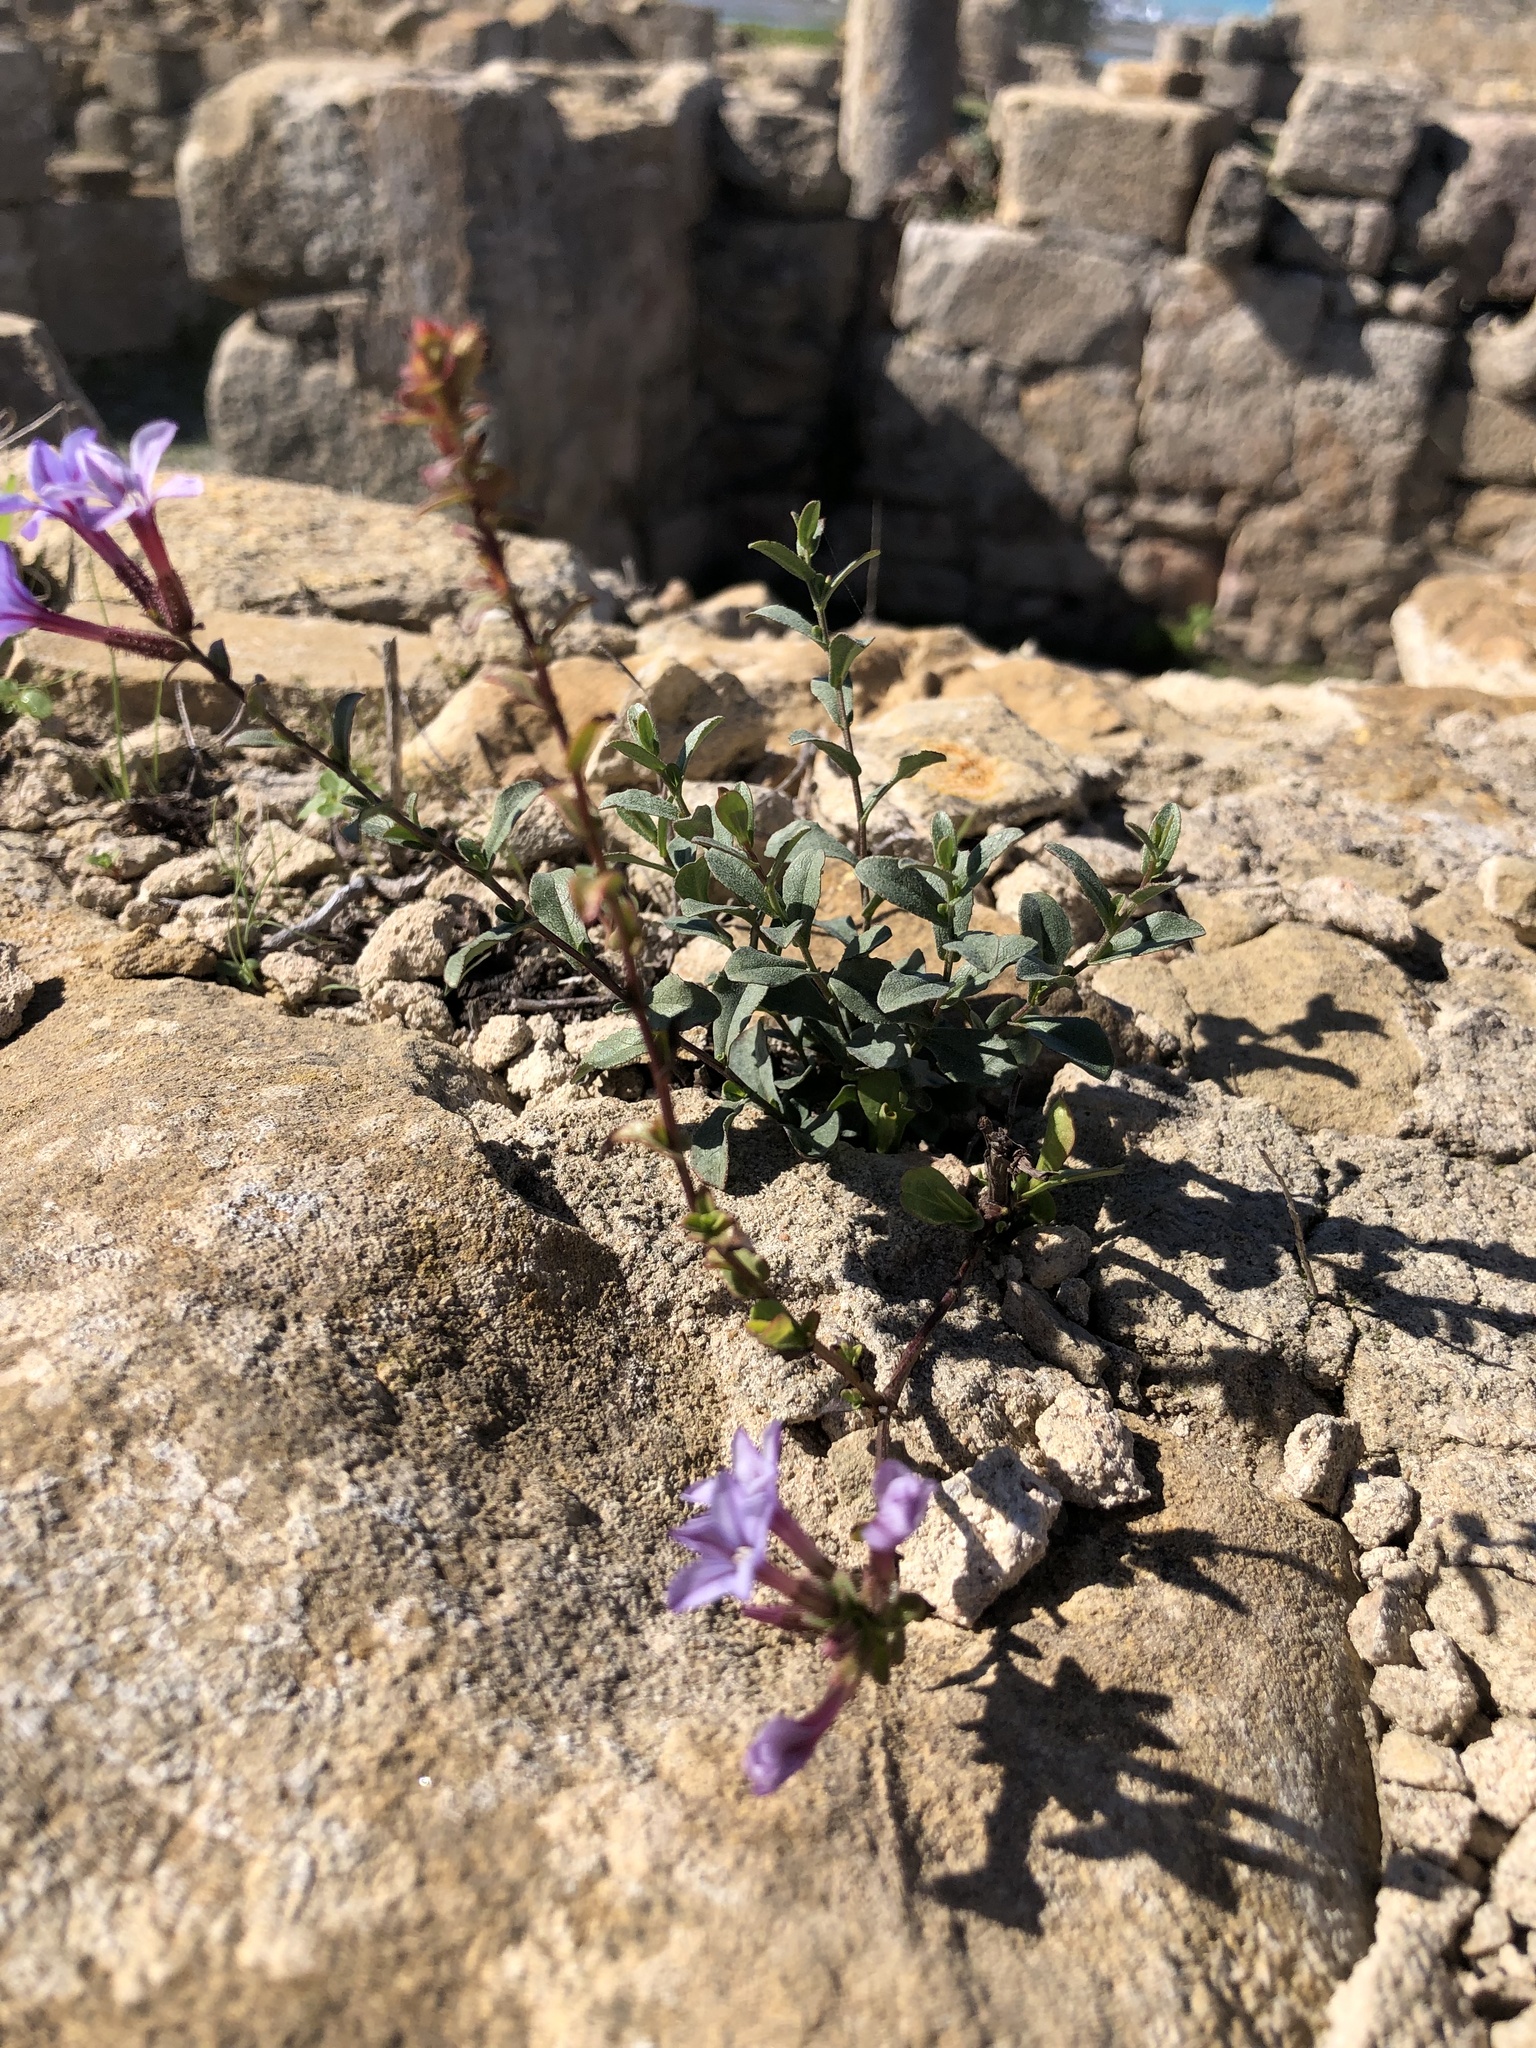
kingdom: Plantae
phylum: Tracheophyta
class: Magnoliopsida
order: Caryophyllales
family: Plumbaginaceae
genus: Plumbago
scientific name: Plumbago europaea
